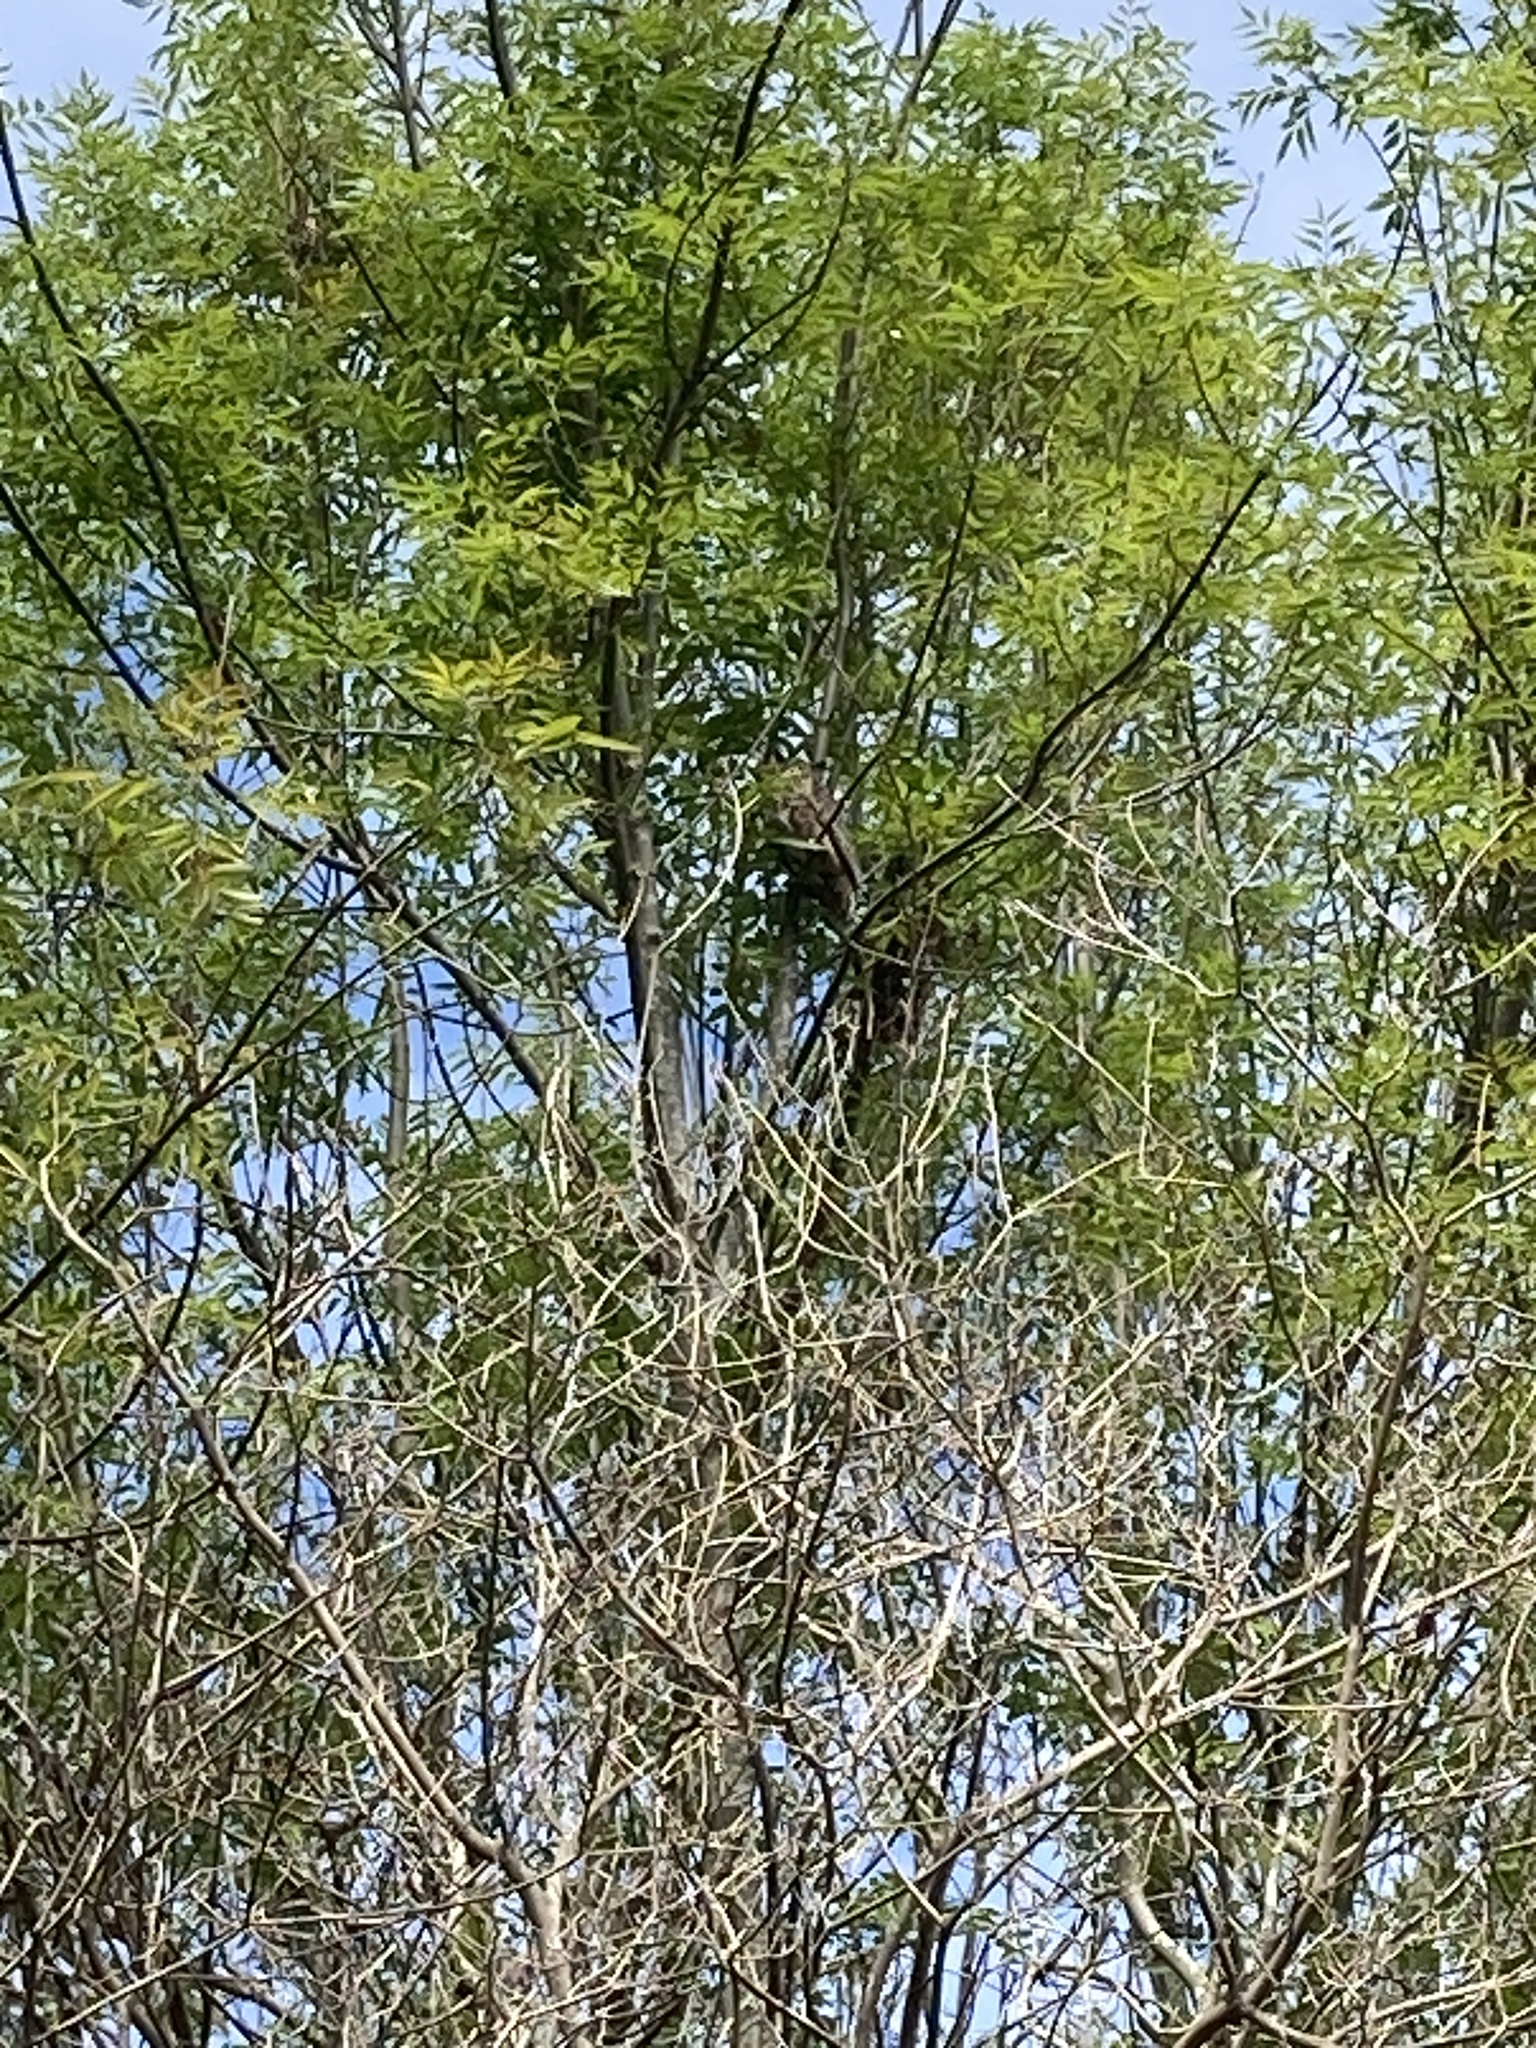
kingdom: Animalia
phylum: Chordata
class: Aves
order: Strigiformes
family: Strigidae
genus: Bubo
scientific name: Bubo virginianus
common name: Great horned owl
